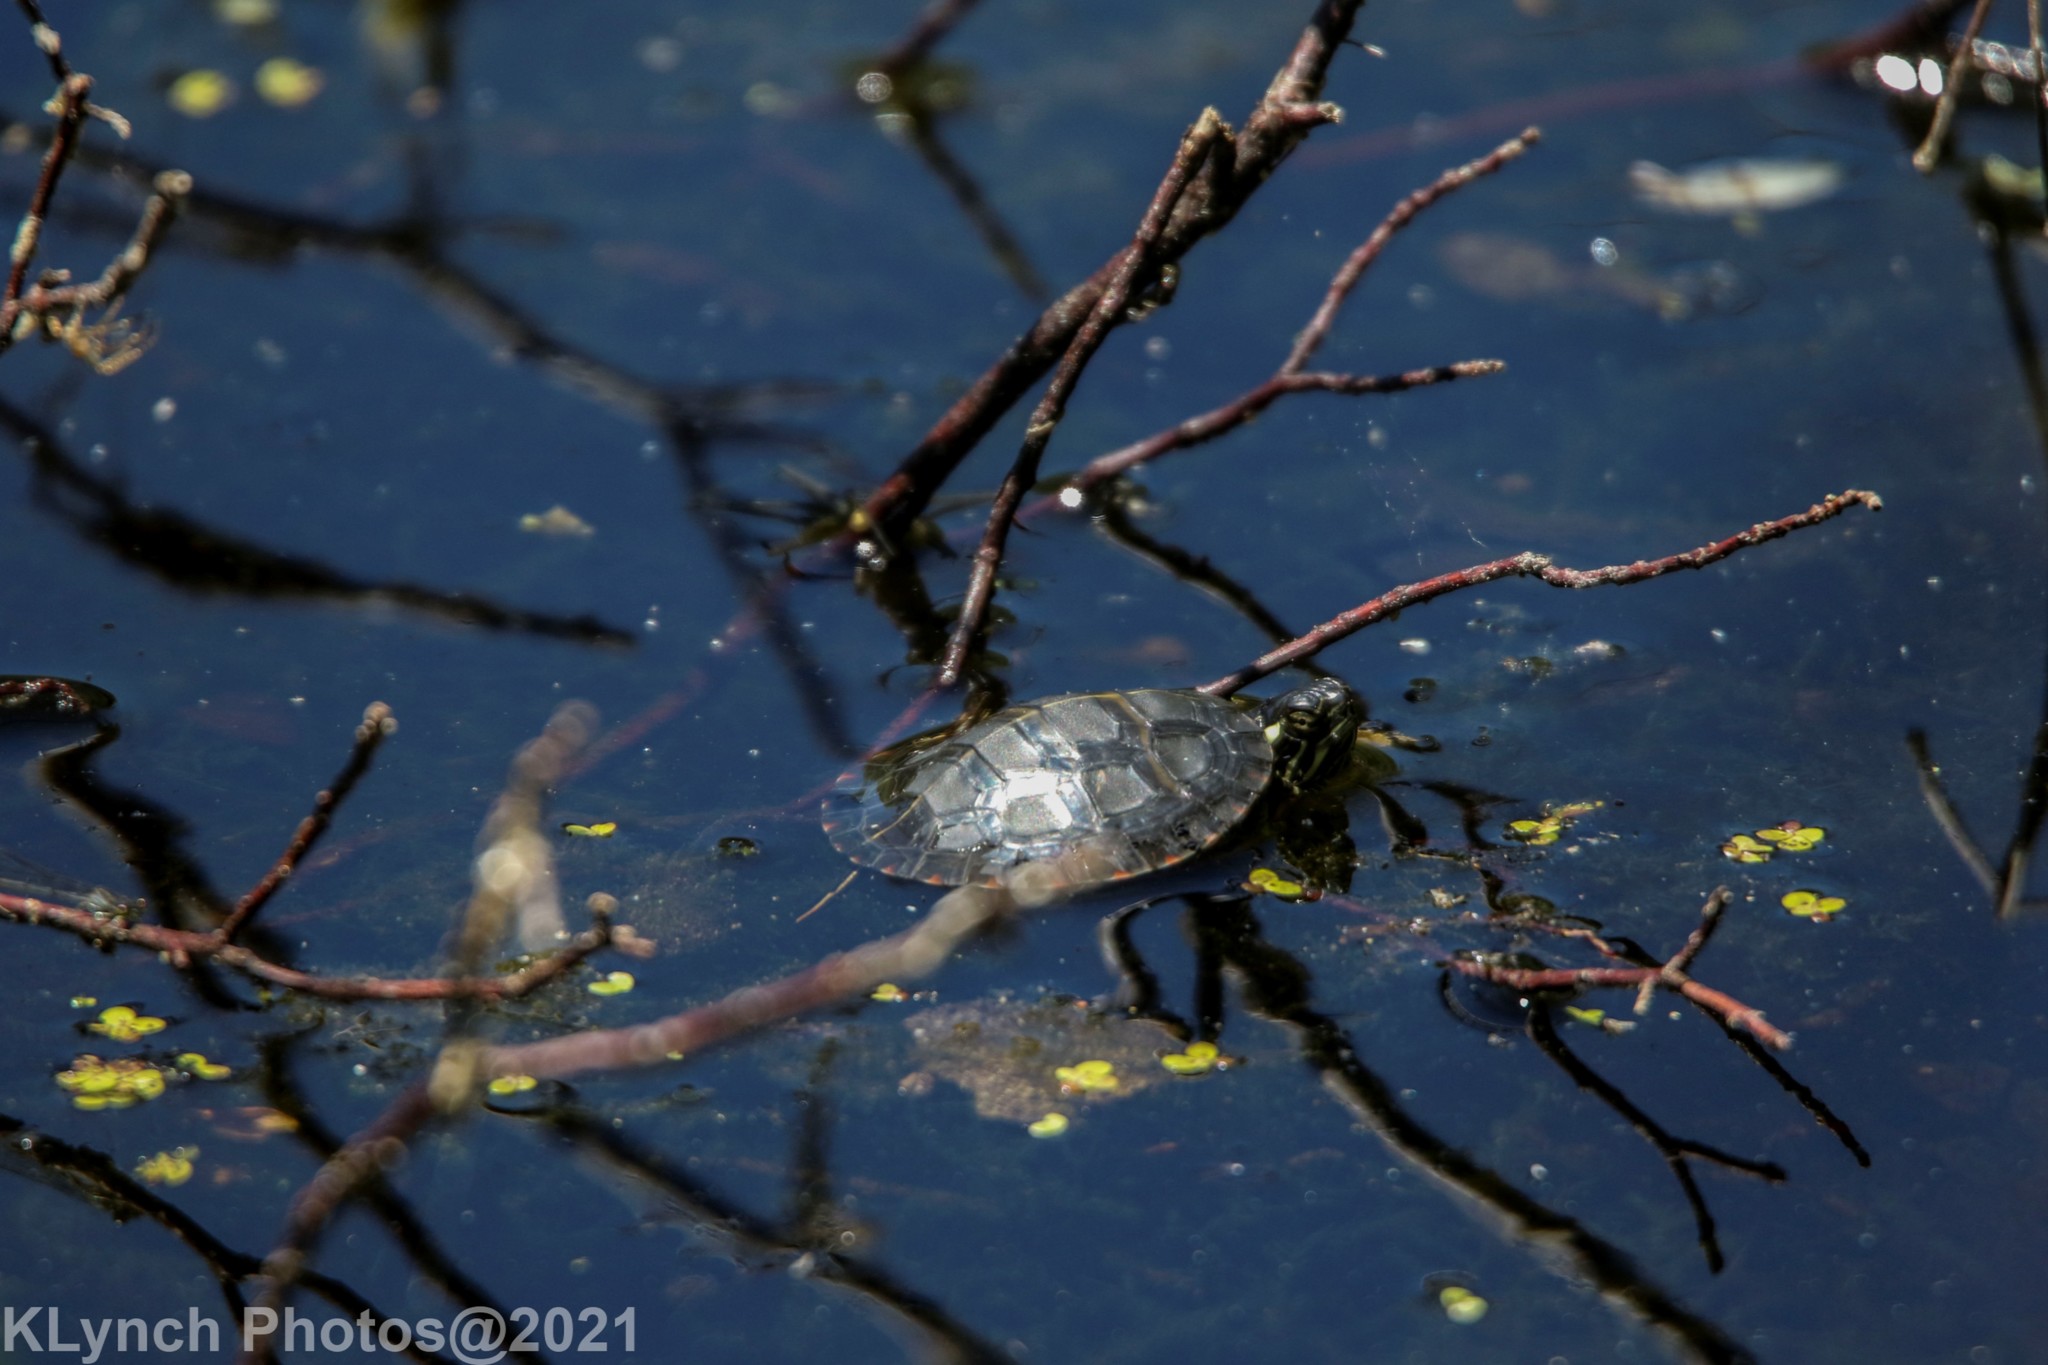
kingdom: Animalia
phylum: Chordata
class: Testudines
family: Emydidae
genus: Chrysemys
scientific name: Chrysemys picta
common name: Painted turtle
